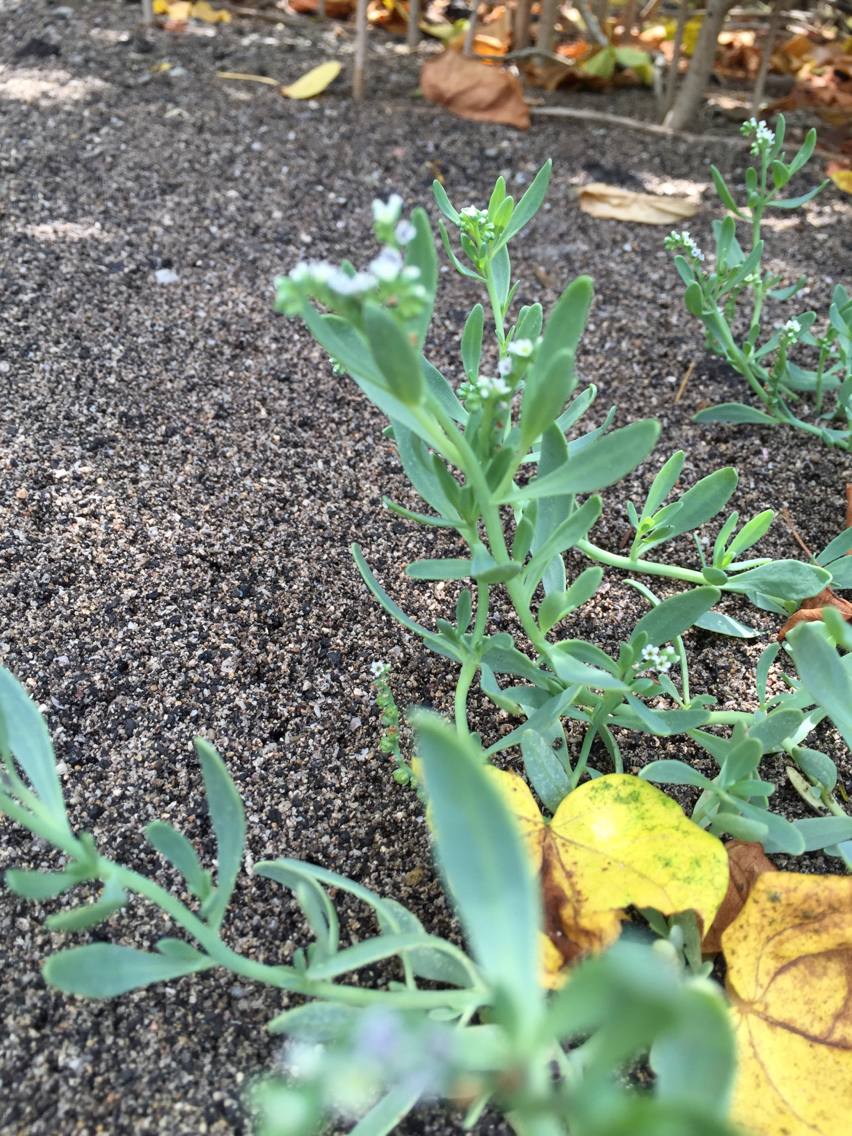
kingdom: Plantae
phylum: Tracheophyta
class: Magnoliopsida
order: Boraginales
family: Heliotropiaceae
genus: Heliotropium
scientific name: Heliotropium curassavicum
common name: Seaside heliotrope
